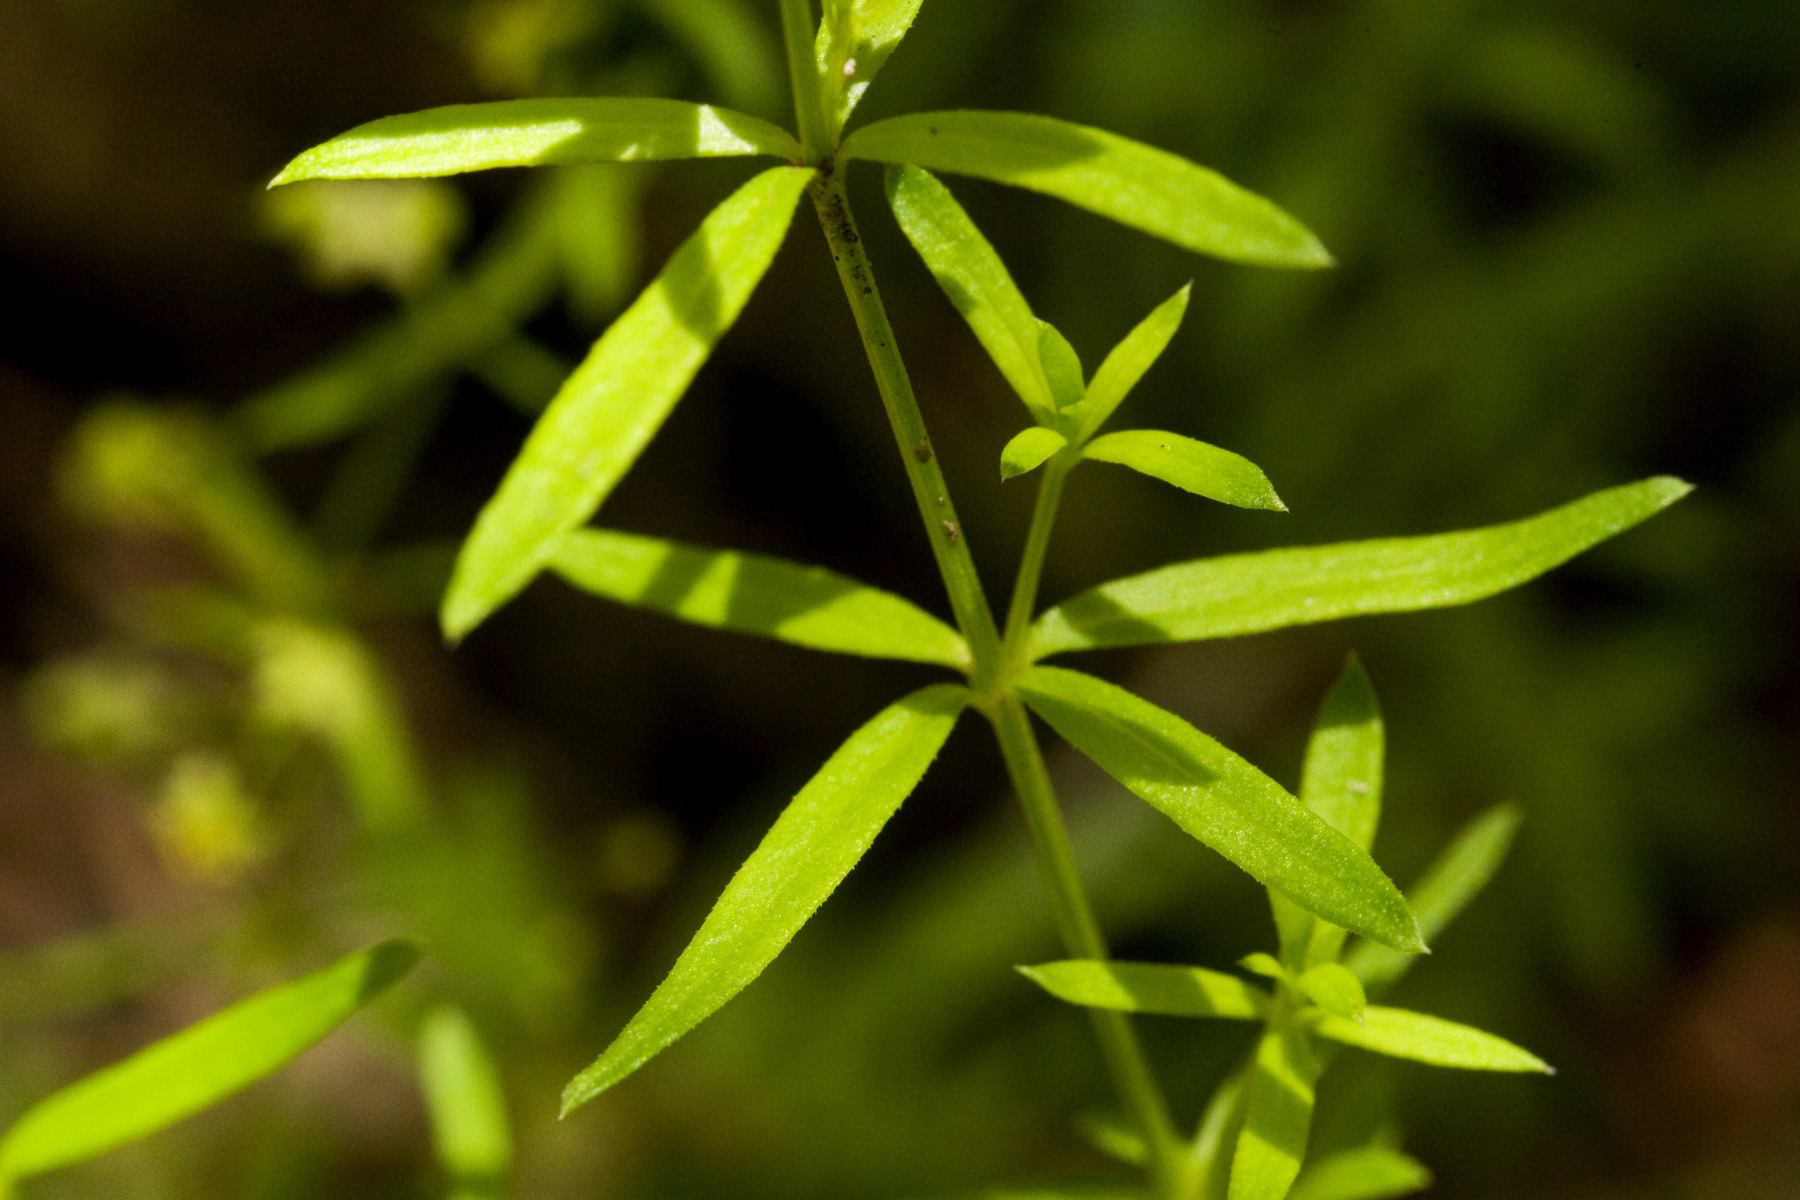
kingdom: Plantae
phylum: Tracheophyta
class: Magnoliopsida
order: Gentianales
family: Rubiaceae
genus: Galium
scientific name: Galium fendleri
